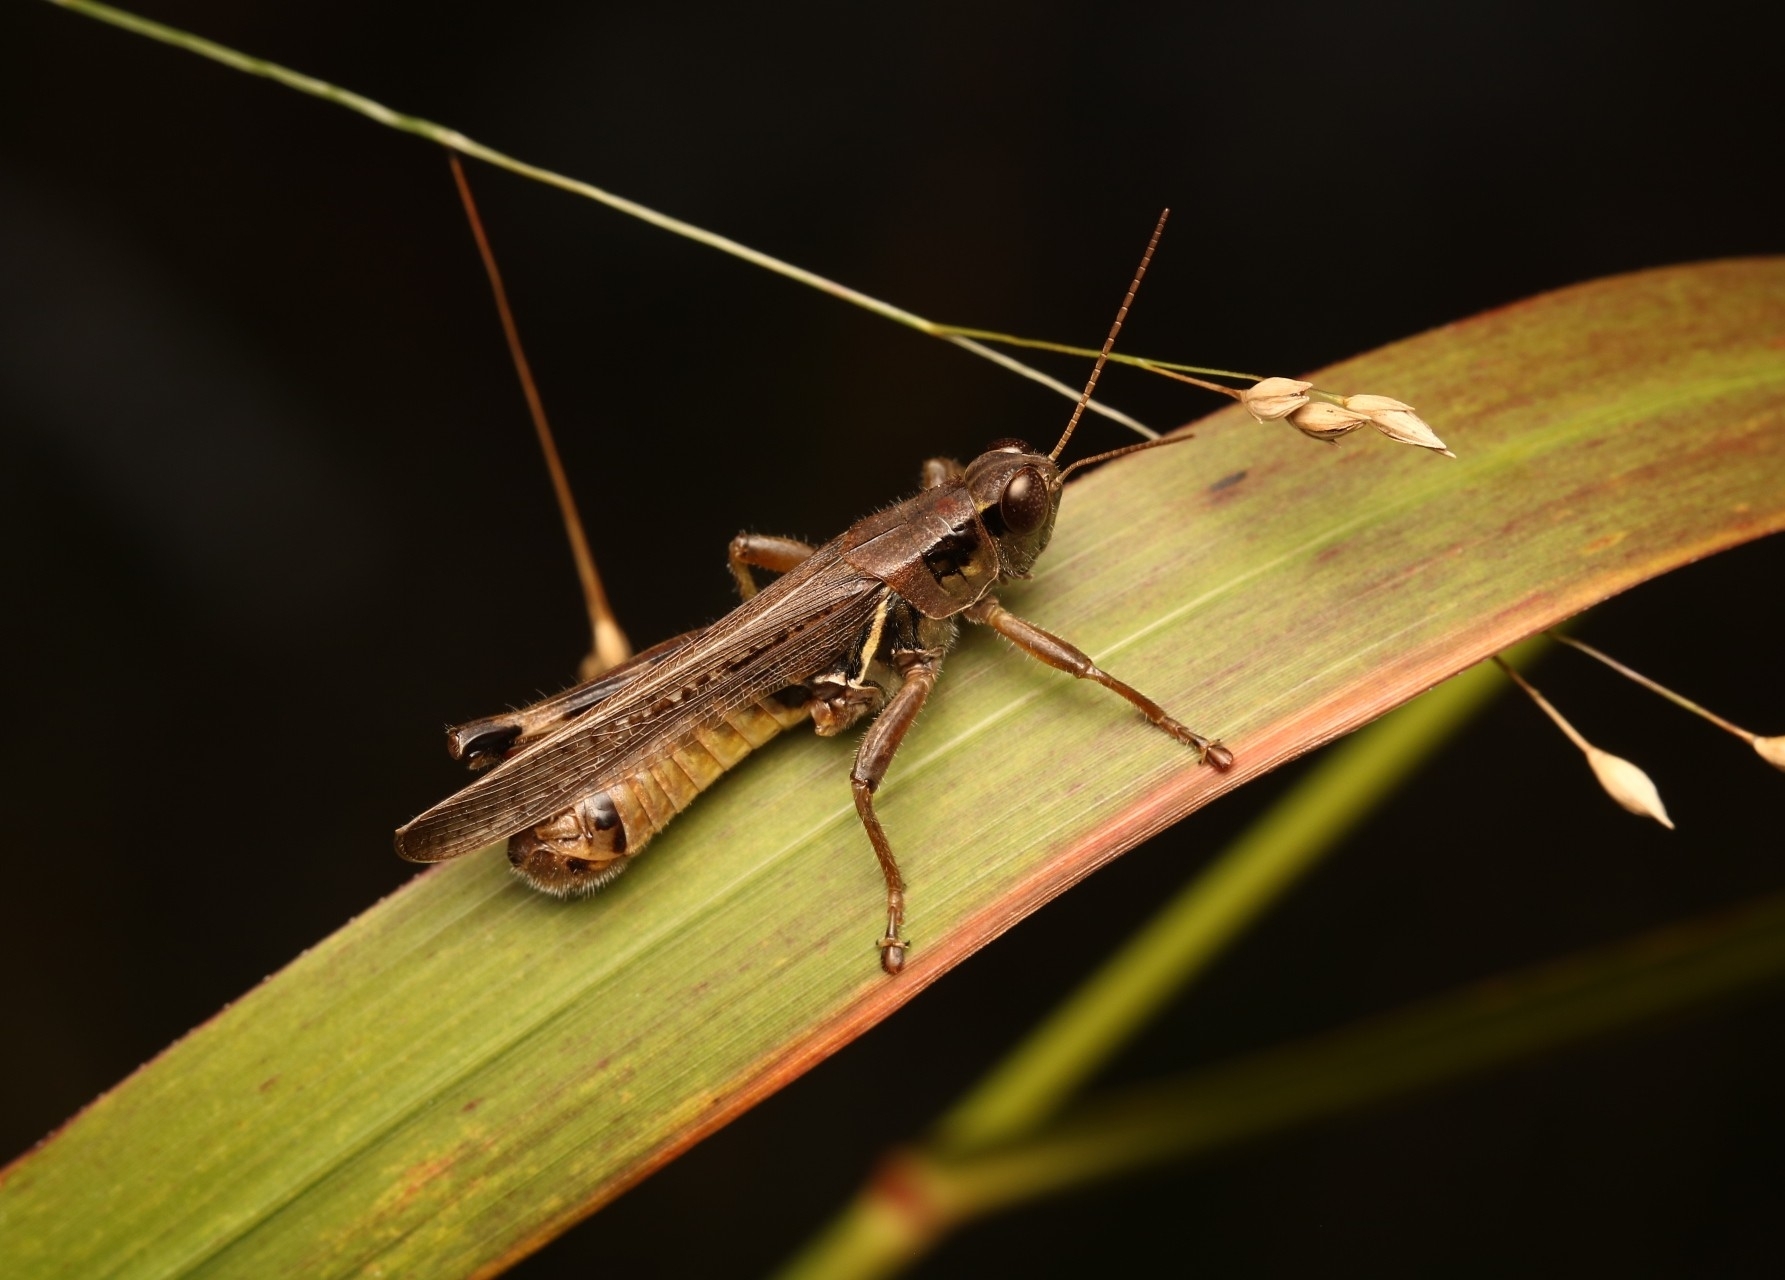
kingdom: Animalia
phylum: Arthropoda
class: Insecta
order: Orthoptera
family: Acrididae
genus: Melanoplus
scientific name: Melanoplus femurrubrum
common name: Red-legged grasshopper
